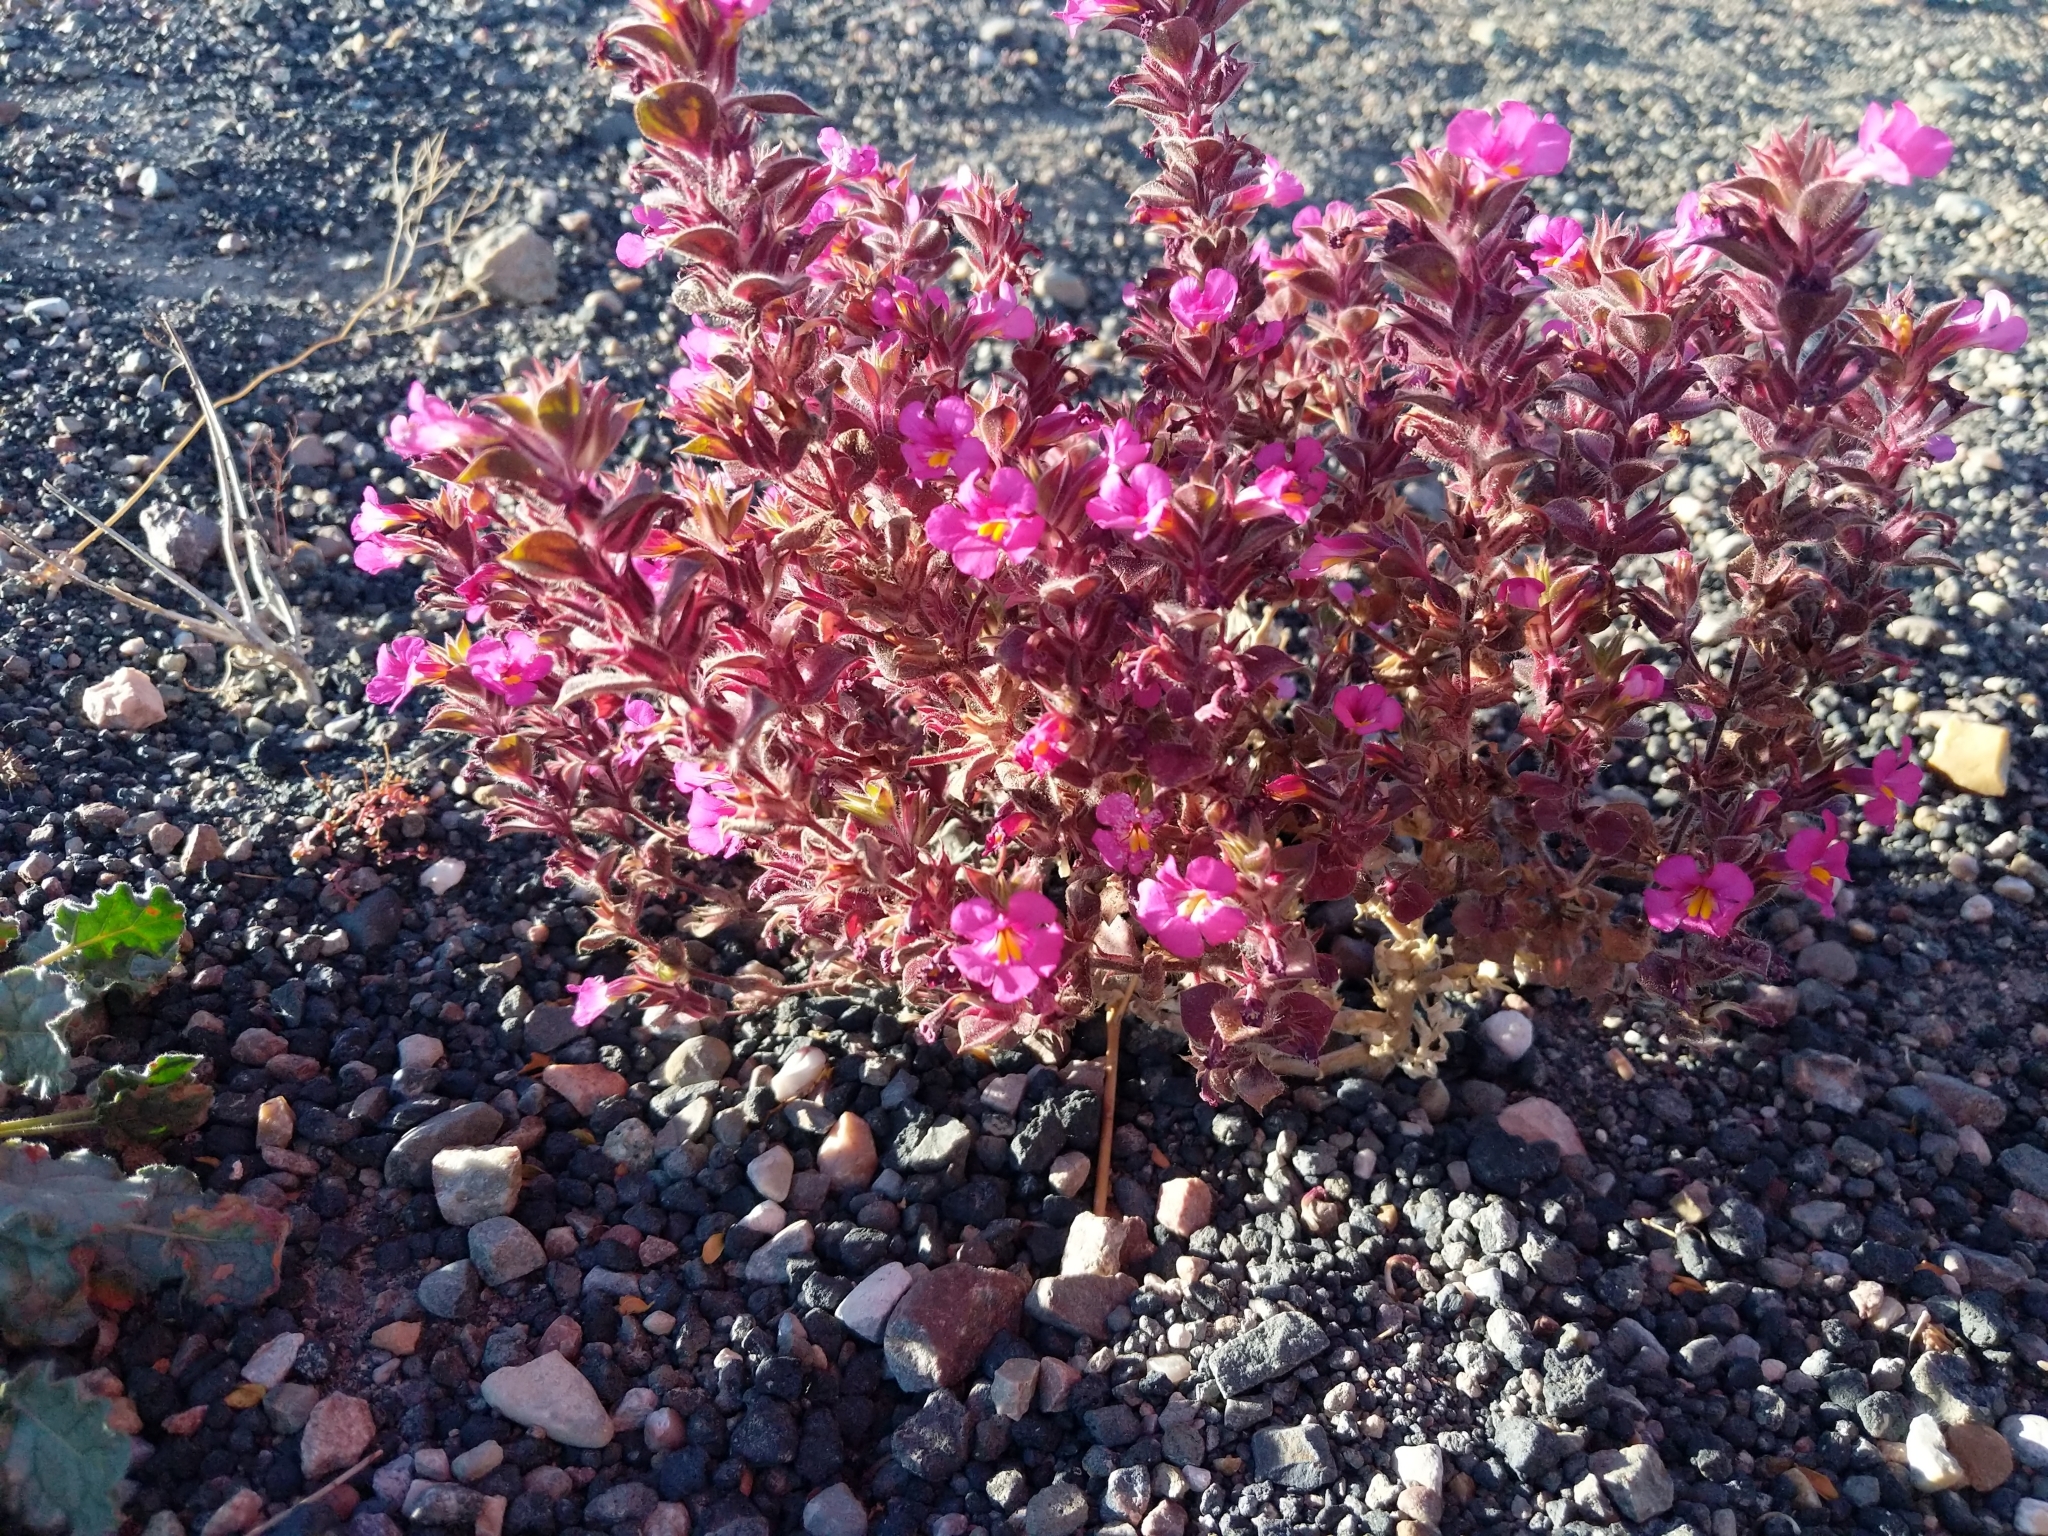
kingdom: Plantae
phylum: Tracheophyta
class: Magnoliopsida
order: Lamiales
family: Phrymaceae
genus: Diplacus
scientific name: Diplacus bigelovii
